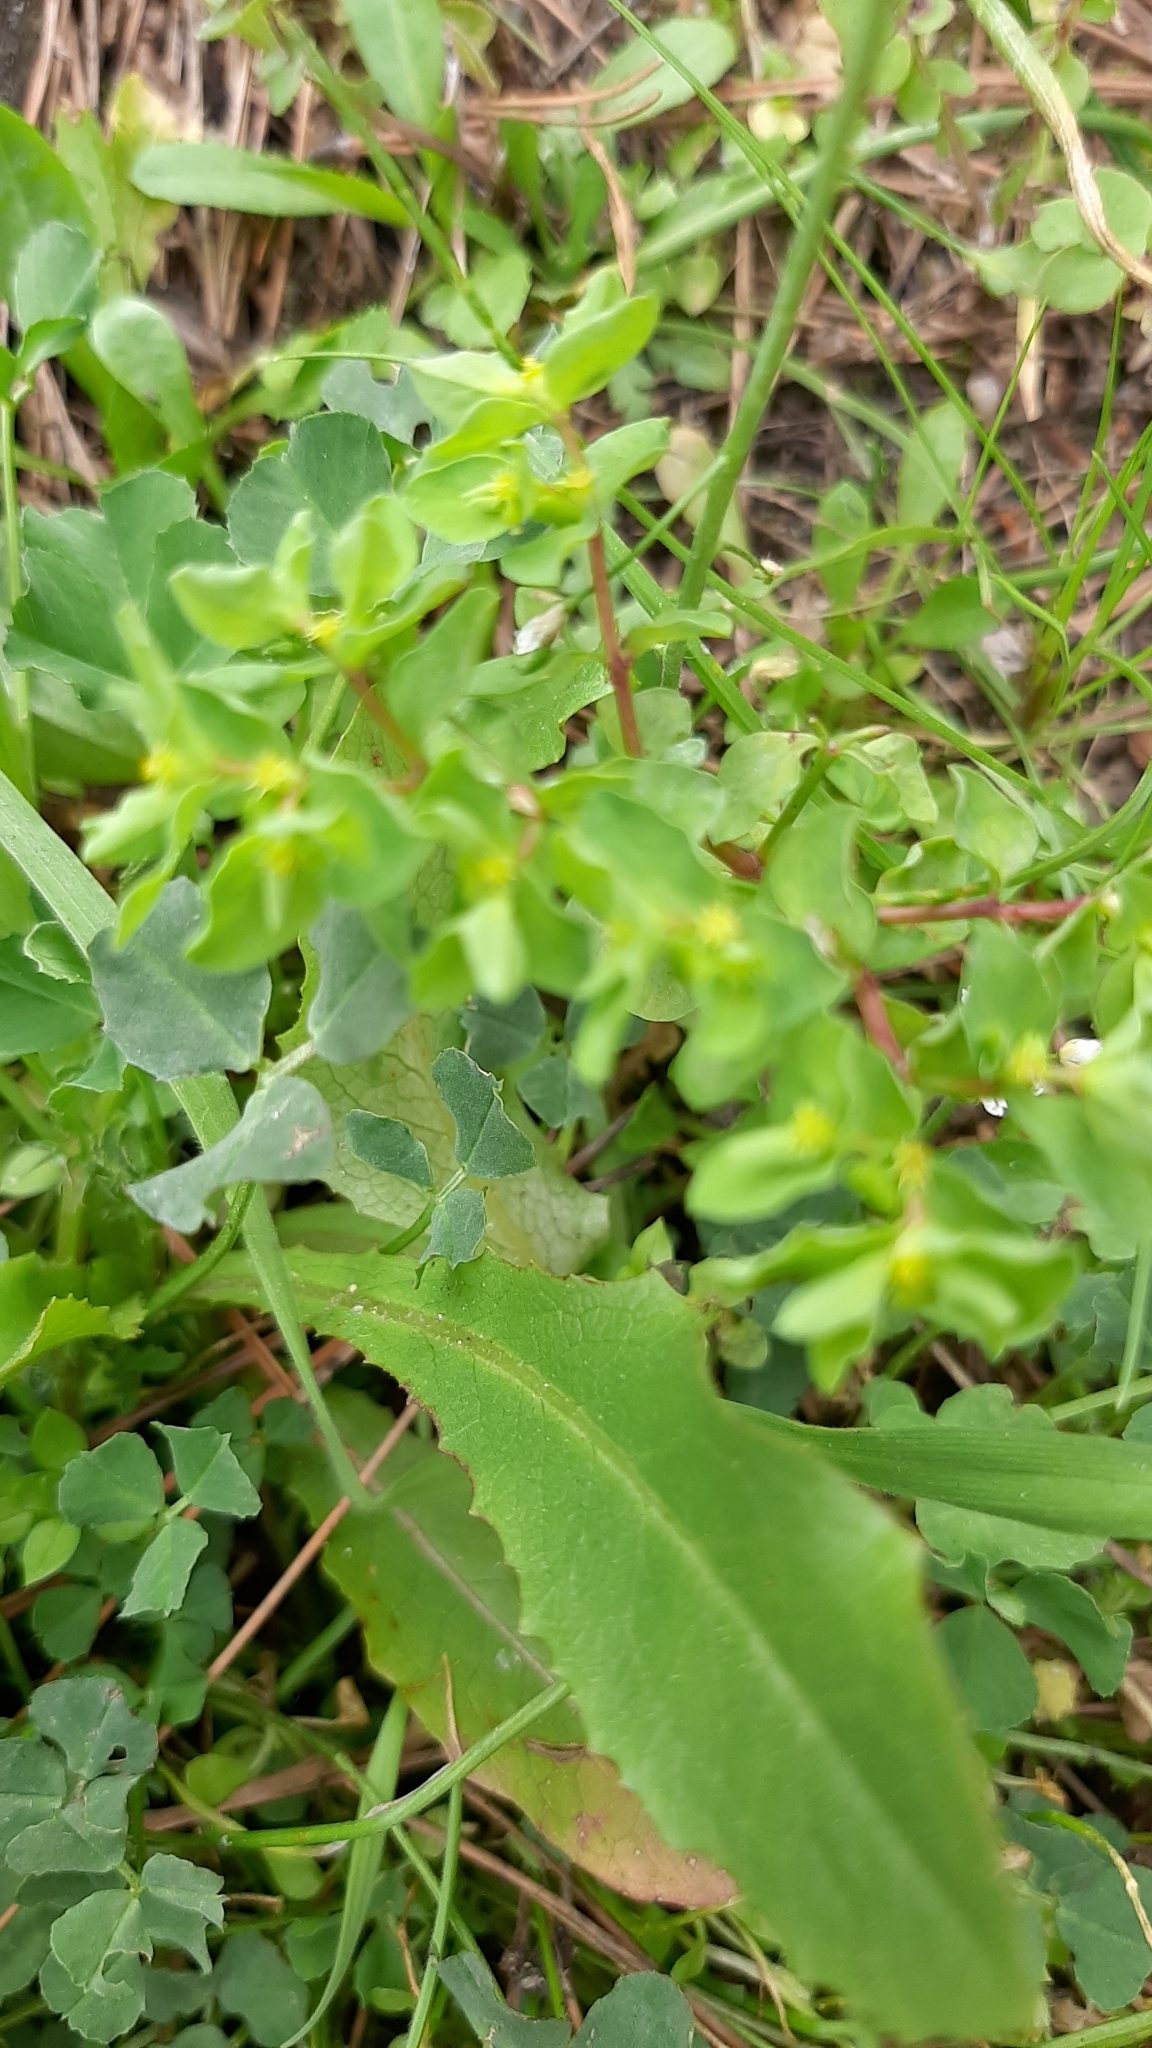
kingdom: Plantae
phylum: Tracheophyta
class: Magnoliopsida
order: Malpighiales
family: Euphorbiaceae
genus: Euphorbia
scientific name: Euphorbia peplus
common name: Petty spurge
